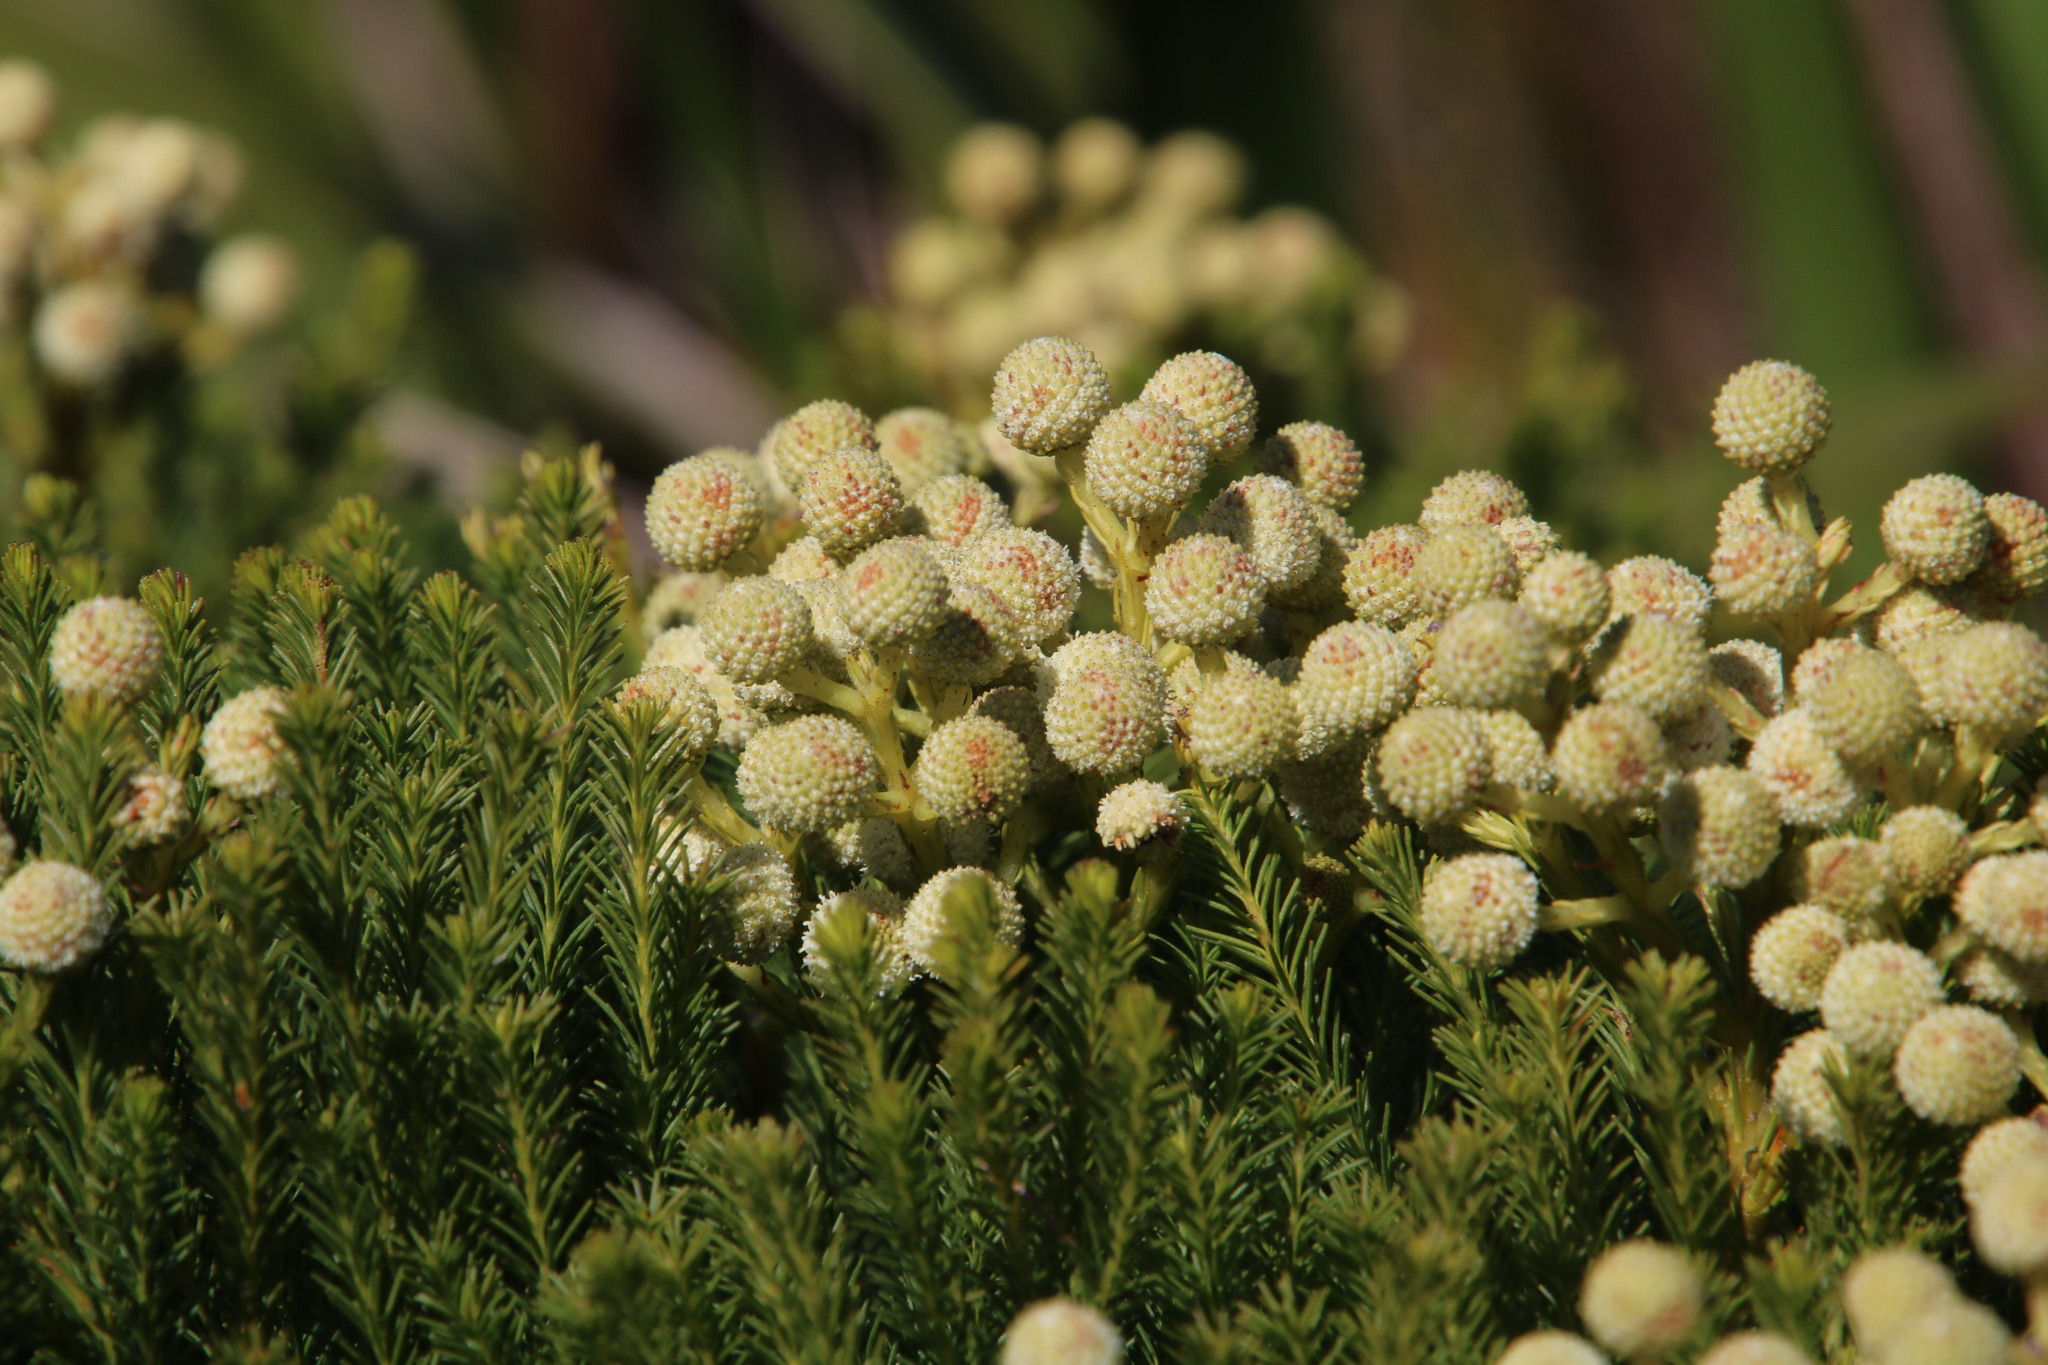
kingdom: Plantae
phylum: Tracheophyta
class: Magnoliopsida
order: Bruniales
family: Bruniaceae
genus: Berzelia
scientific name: Berzelia lanuginosa
